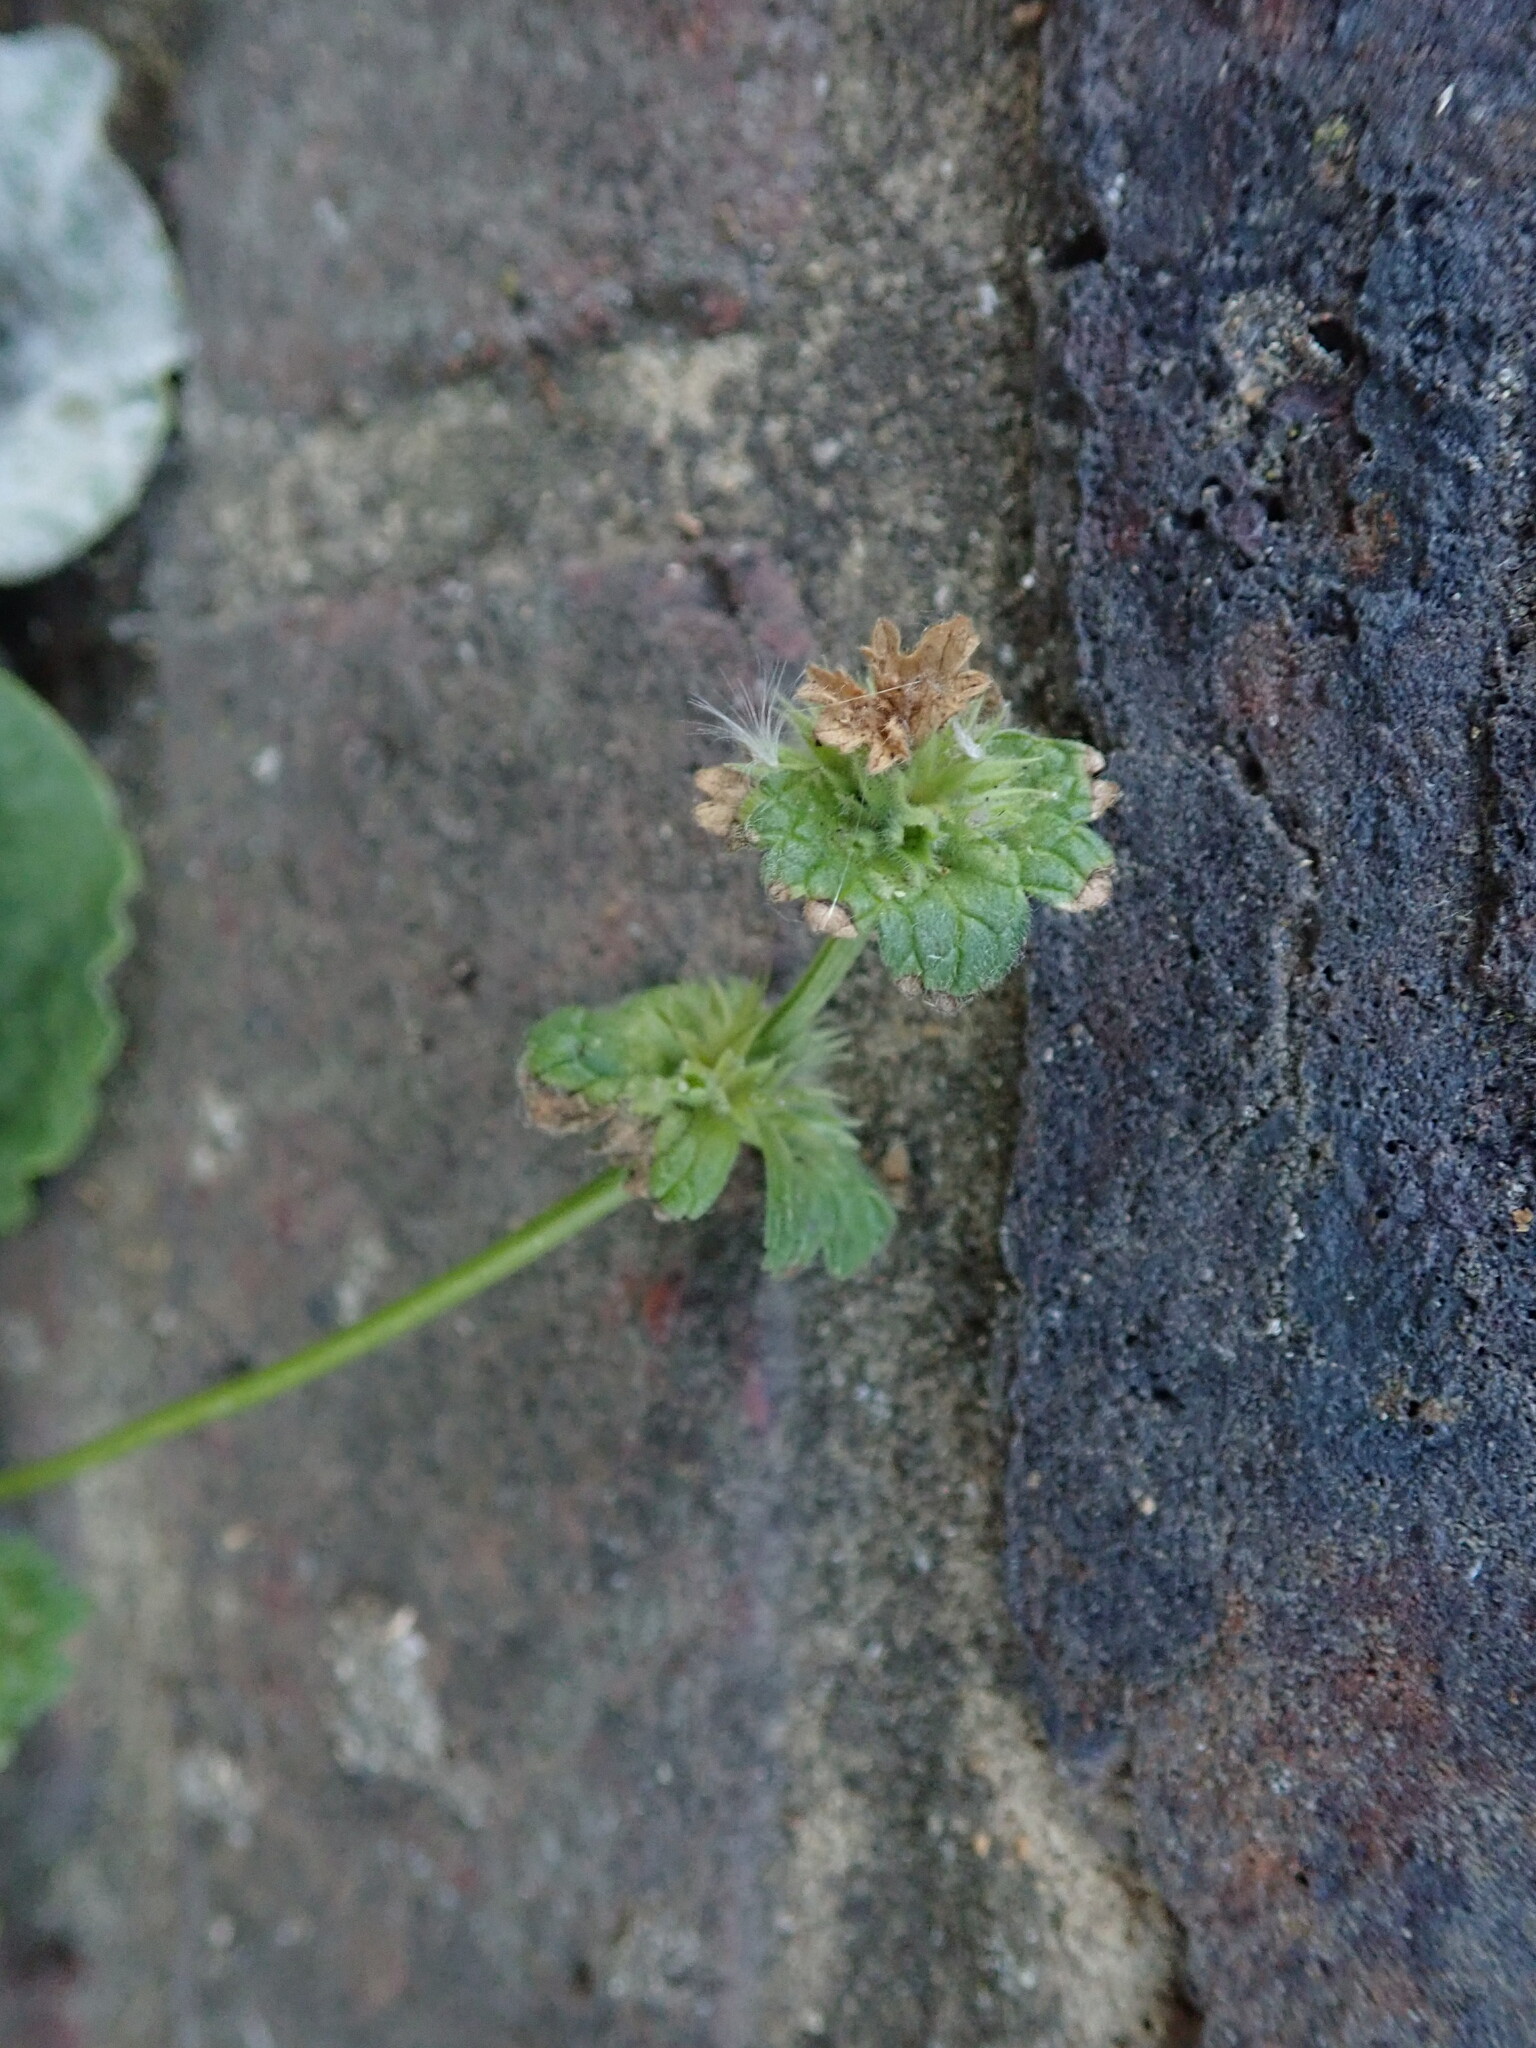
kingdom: Plantae
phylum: Tracheophyta
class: Magnoliopsida
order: Lamiales
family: Lamiaceae
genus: Lamium
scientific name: Lamium amplexicaule
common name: Henbit dead-nettle
